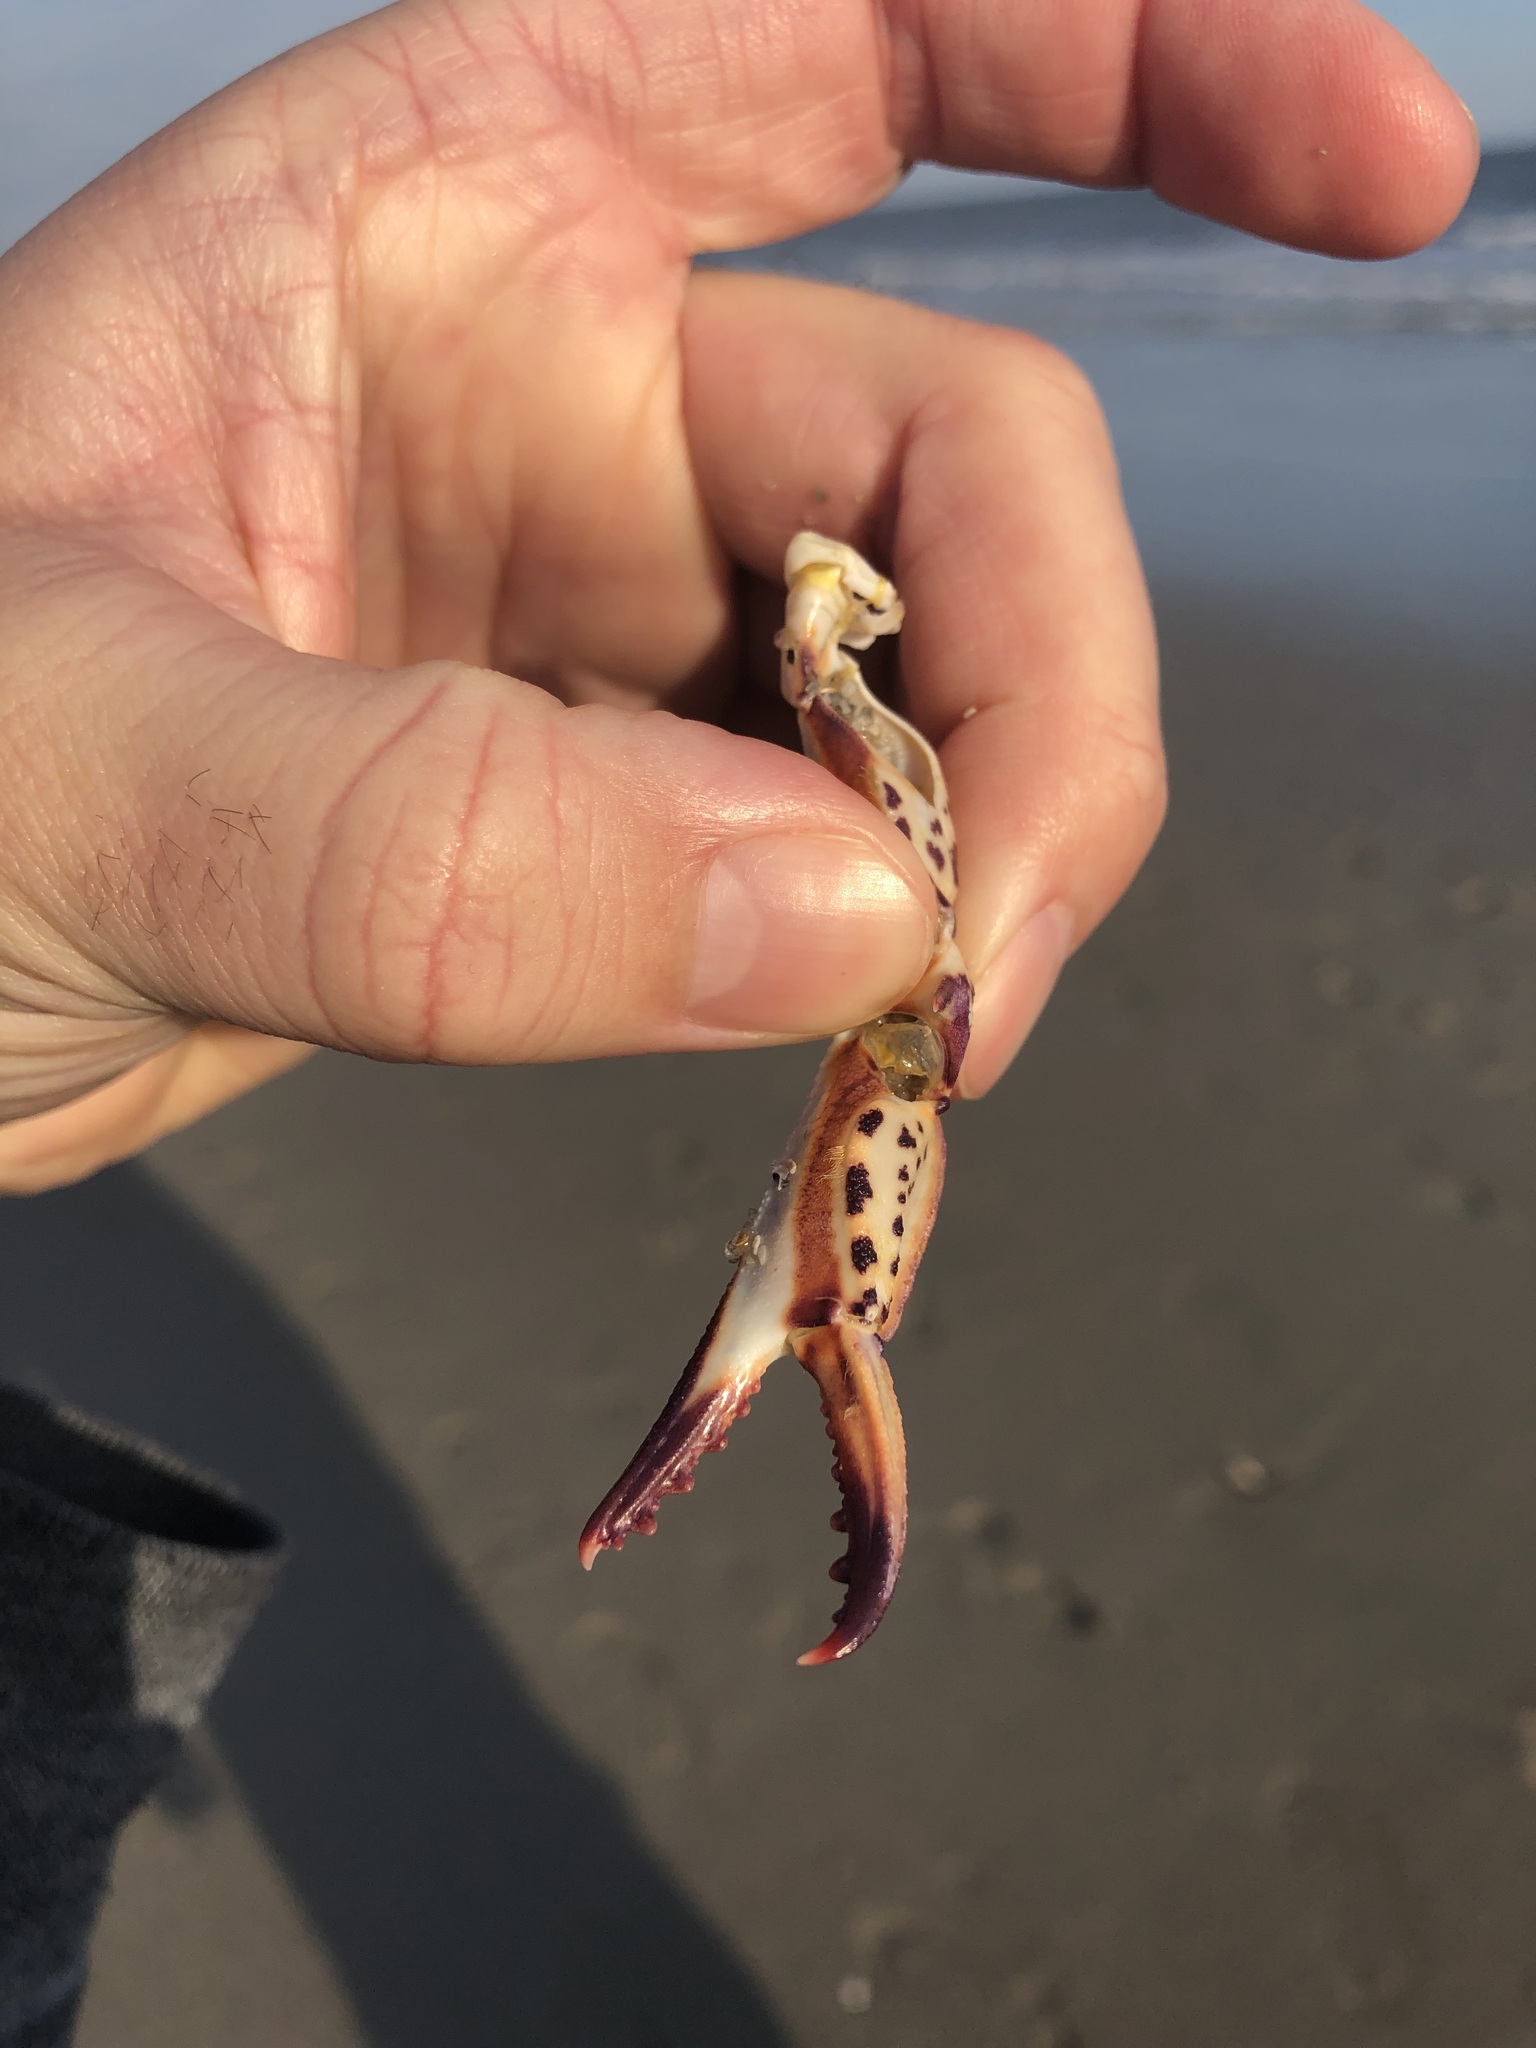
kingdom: Animalia
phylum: Arthropoda
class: Malacostraca
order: Decapoda
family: Ovalipidae
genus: Ovalipes
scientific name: Ovalipes ocellatus
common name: Lady crab
